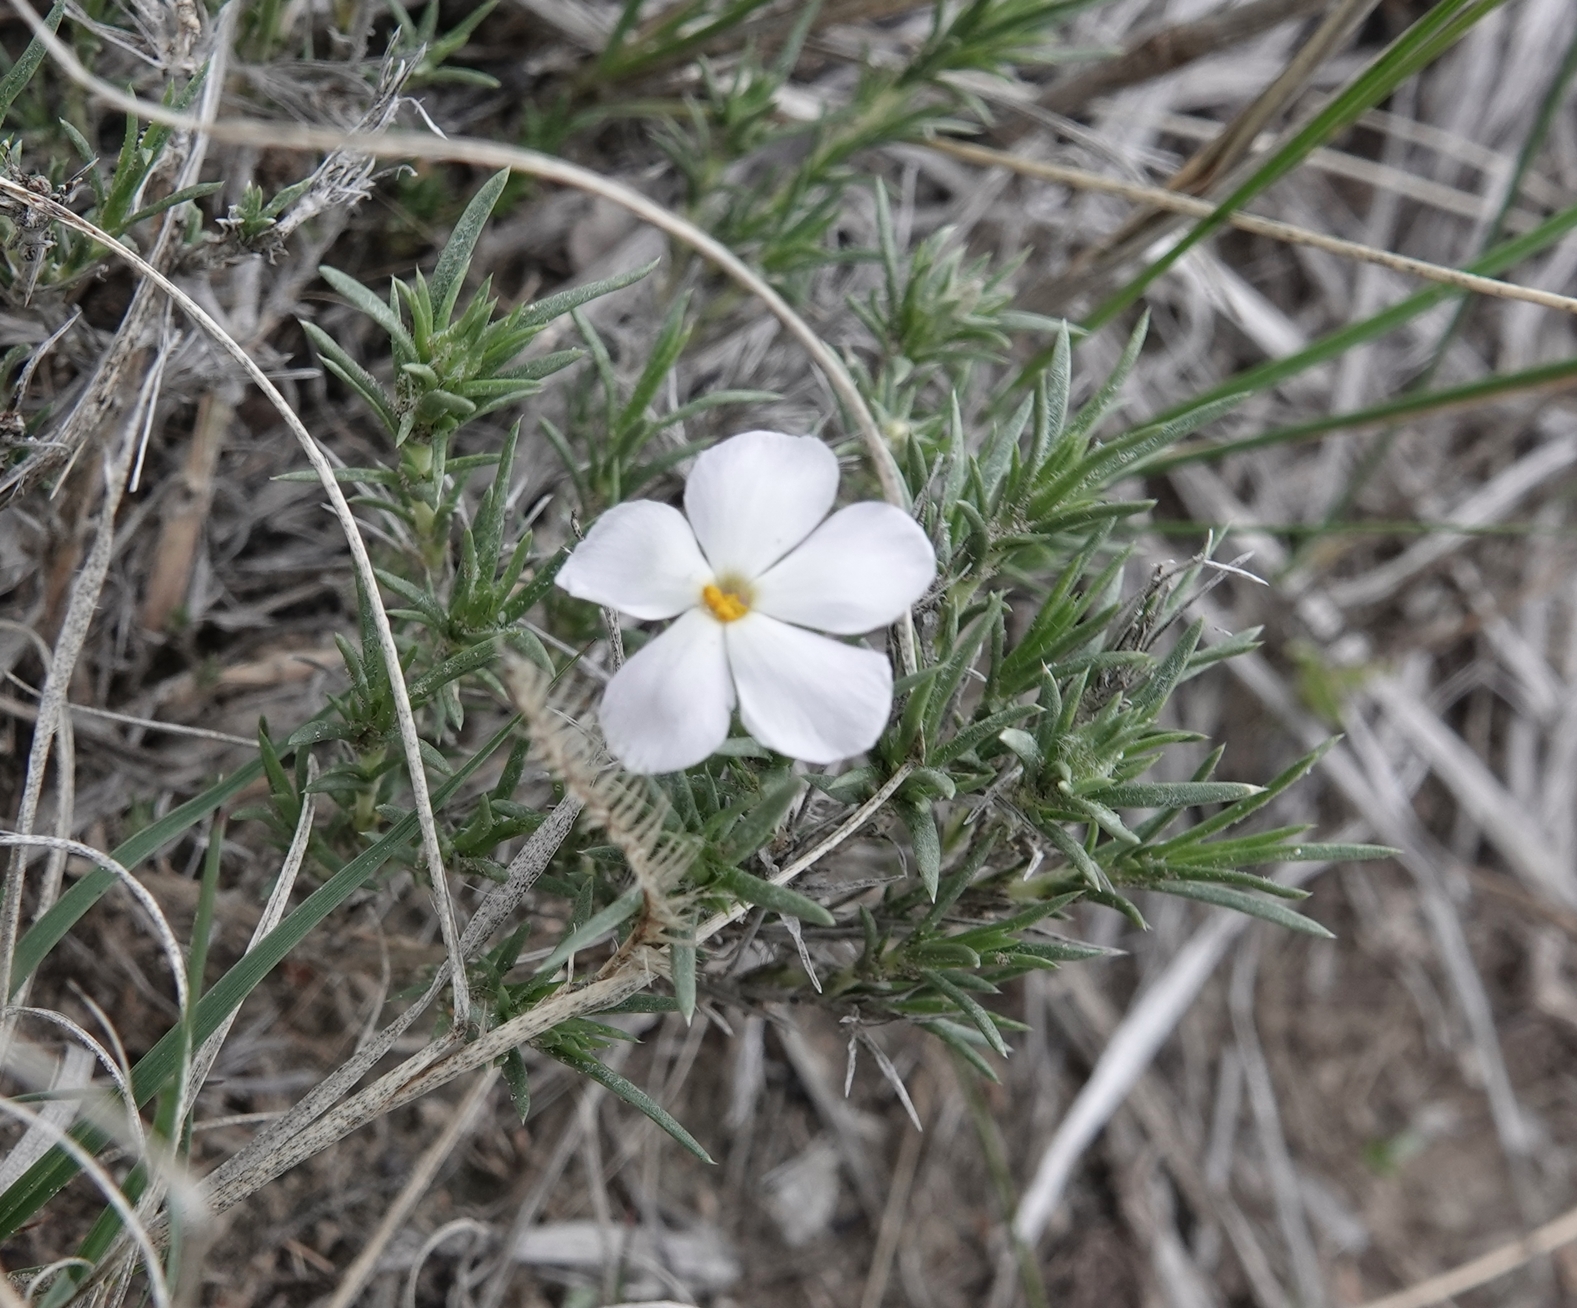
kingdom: Plantae
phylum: Tracheophyta
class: Magnoliopsida
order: Ericales
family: Polemoniaceae
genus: Phlox
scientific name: Phlox hoodii
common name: Moss phlox
